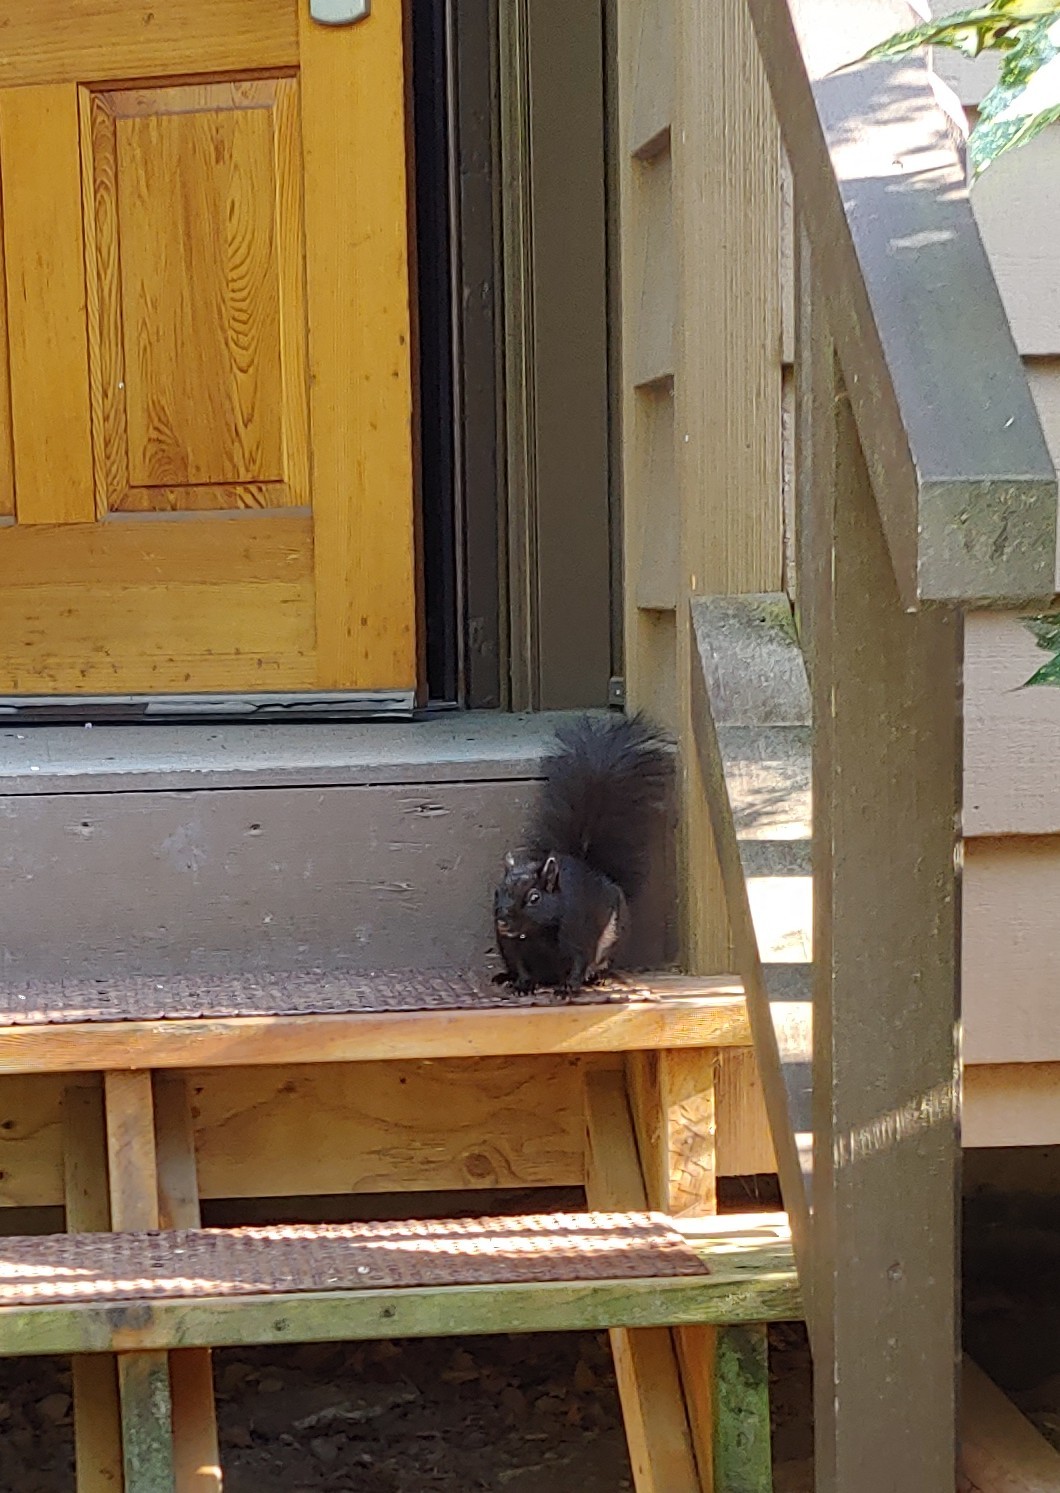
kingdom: Animalia
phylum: Chordata
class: Mammalia
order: Rodentia
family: Sciuridae
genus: Sciurus
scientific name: Sciurus carolinensis
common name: Eastern gray squirrel
